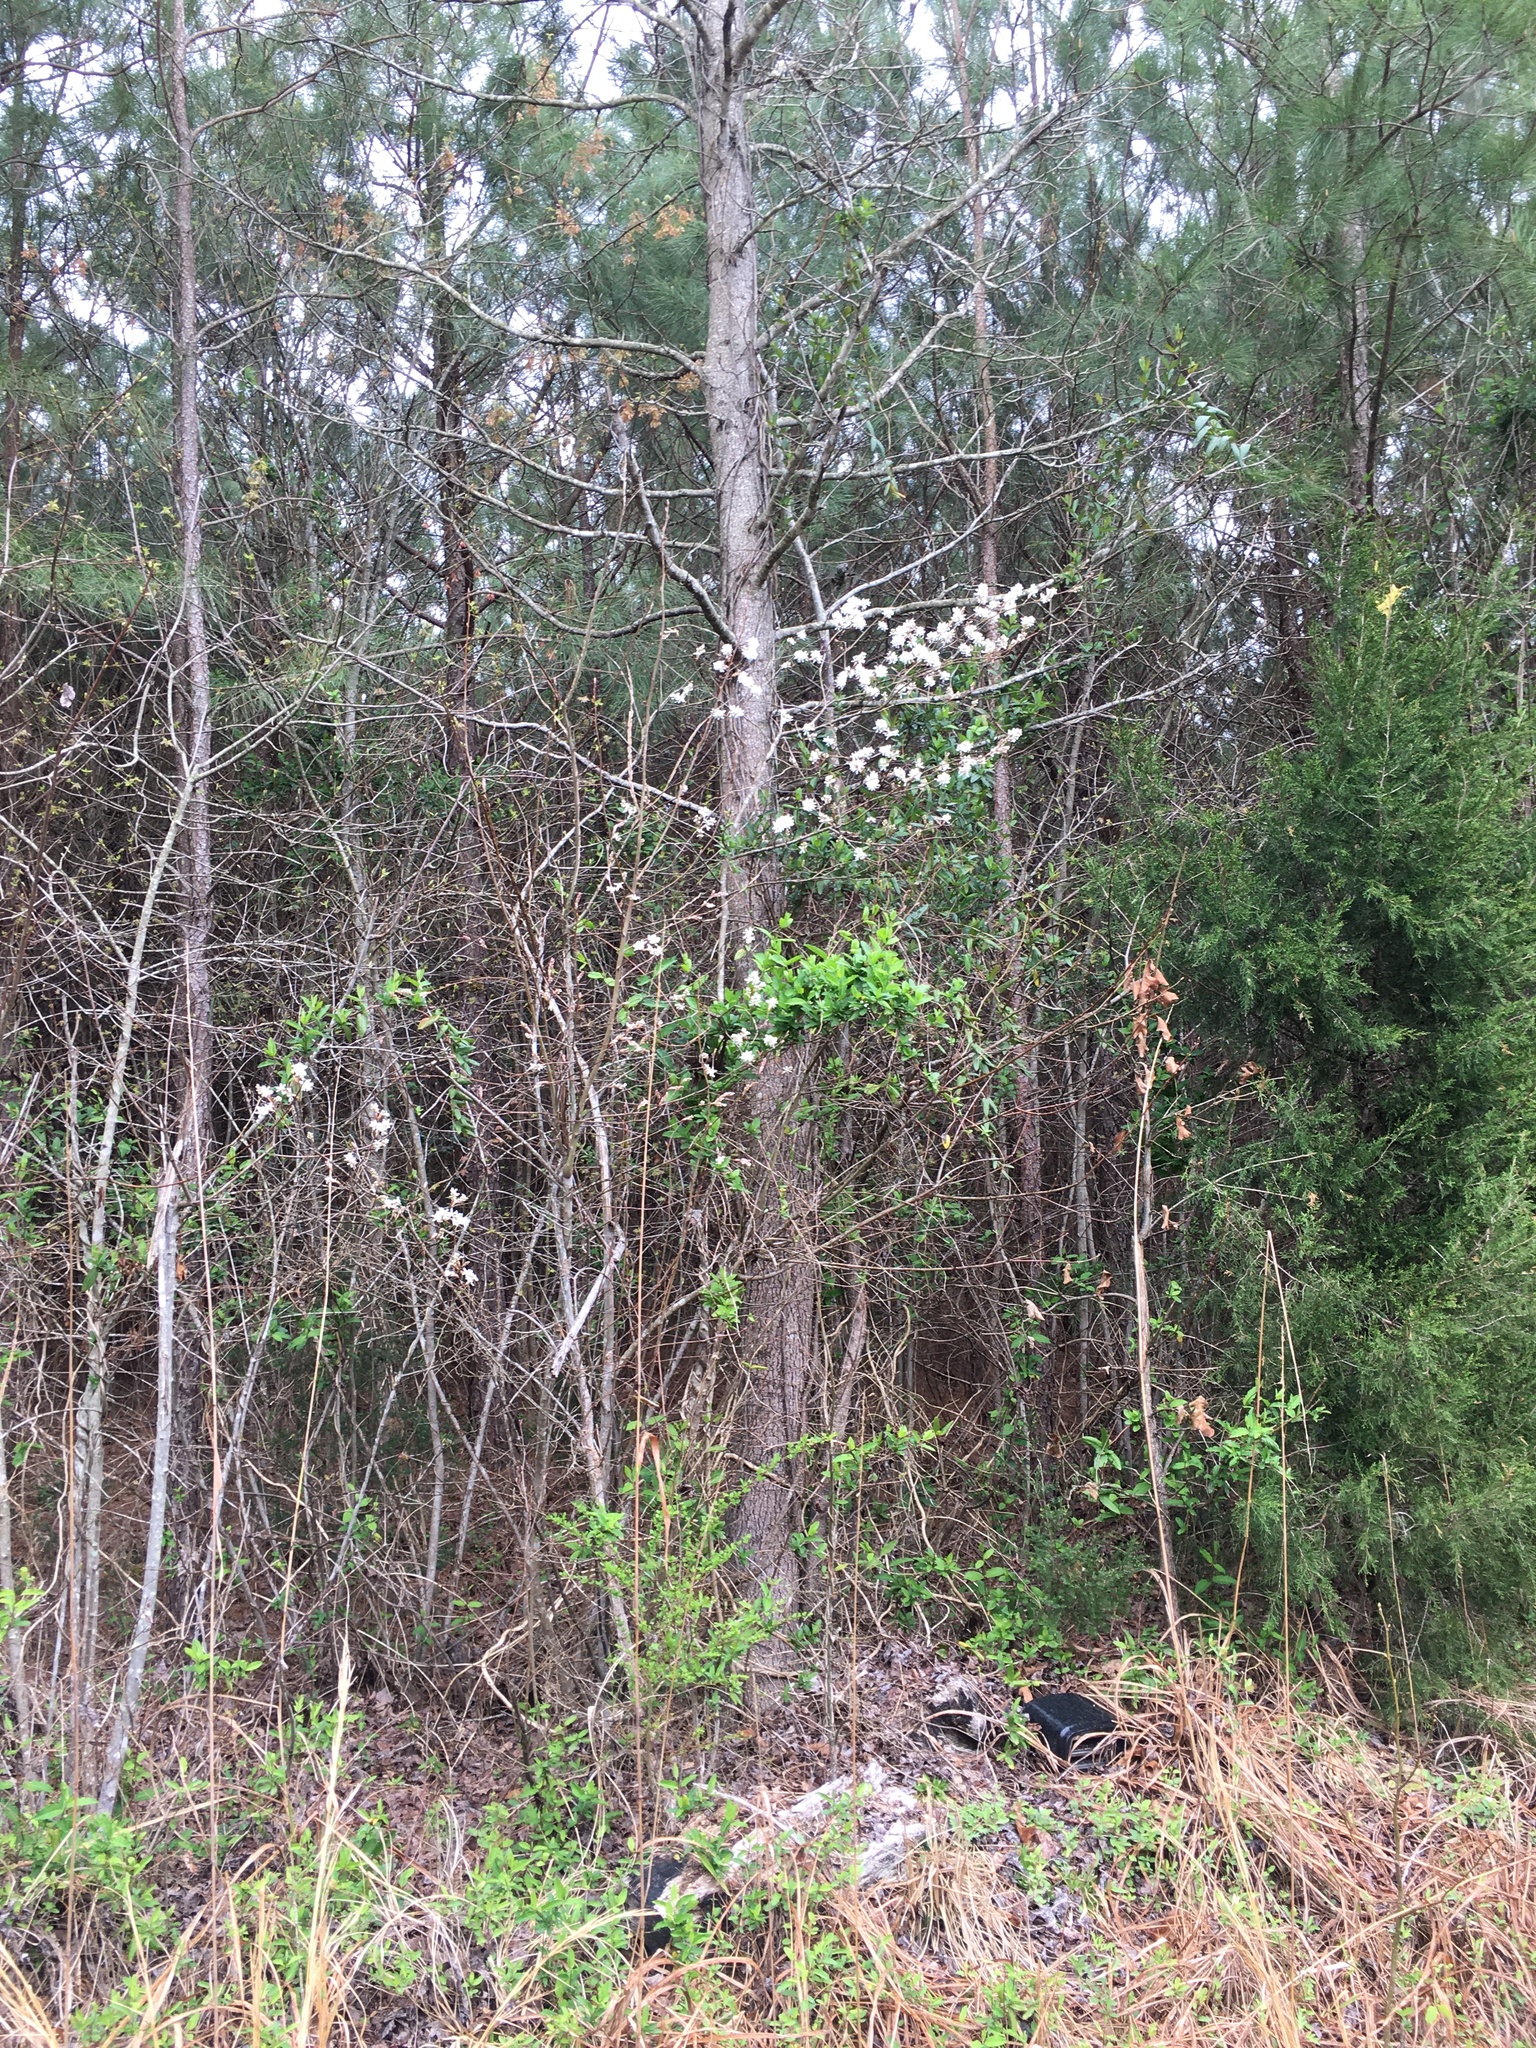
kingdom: Plantae
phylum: Tracheophyta
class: Magnoliopsida
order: Rosales
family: Rosaceae
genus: Amelanchier
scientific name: Amelanchier arborea
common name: Downy serviceberry
